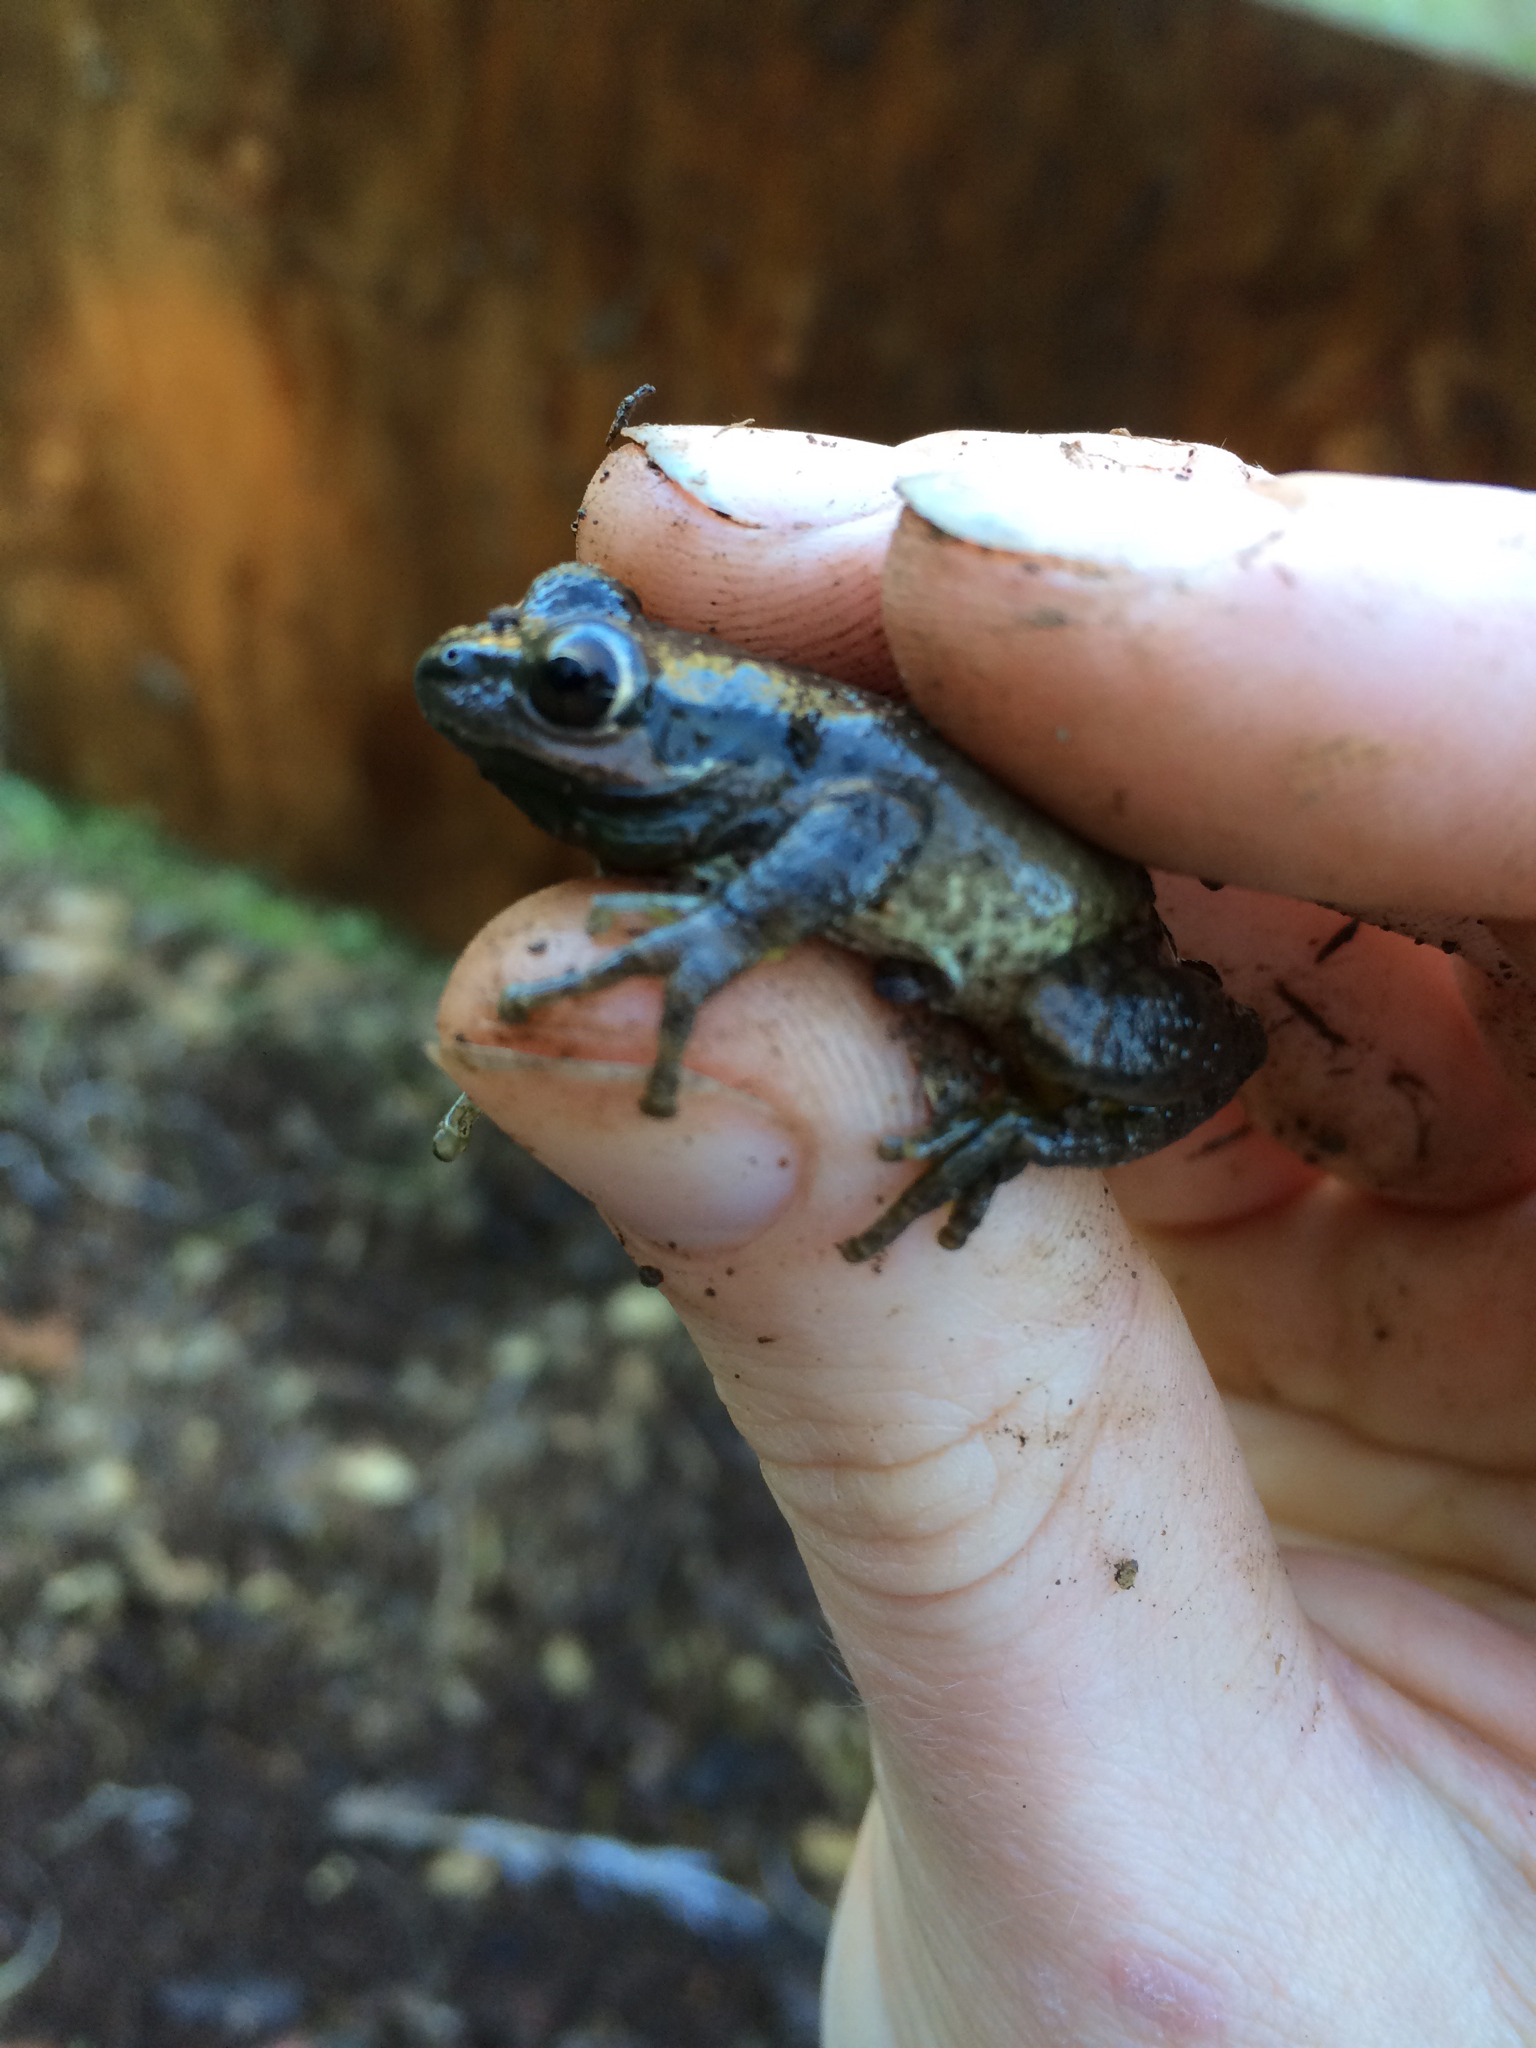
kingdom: Animalia
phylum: Chordata
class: Amphibia
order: Anura
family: Hylidae
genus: Pseudacris
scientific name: Pseudacris regilla
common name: Pacific chorus frog
